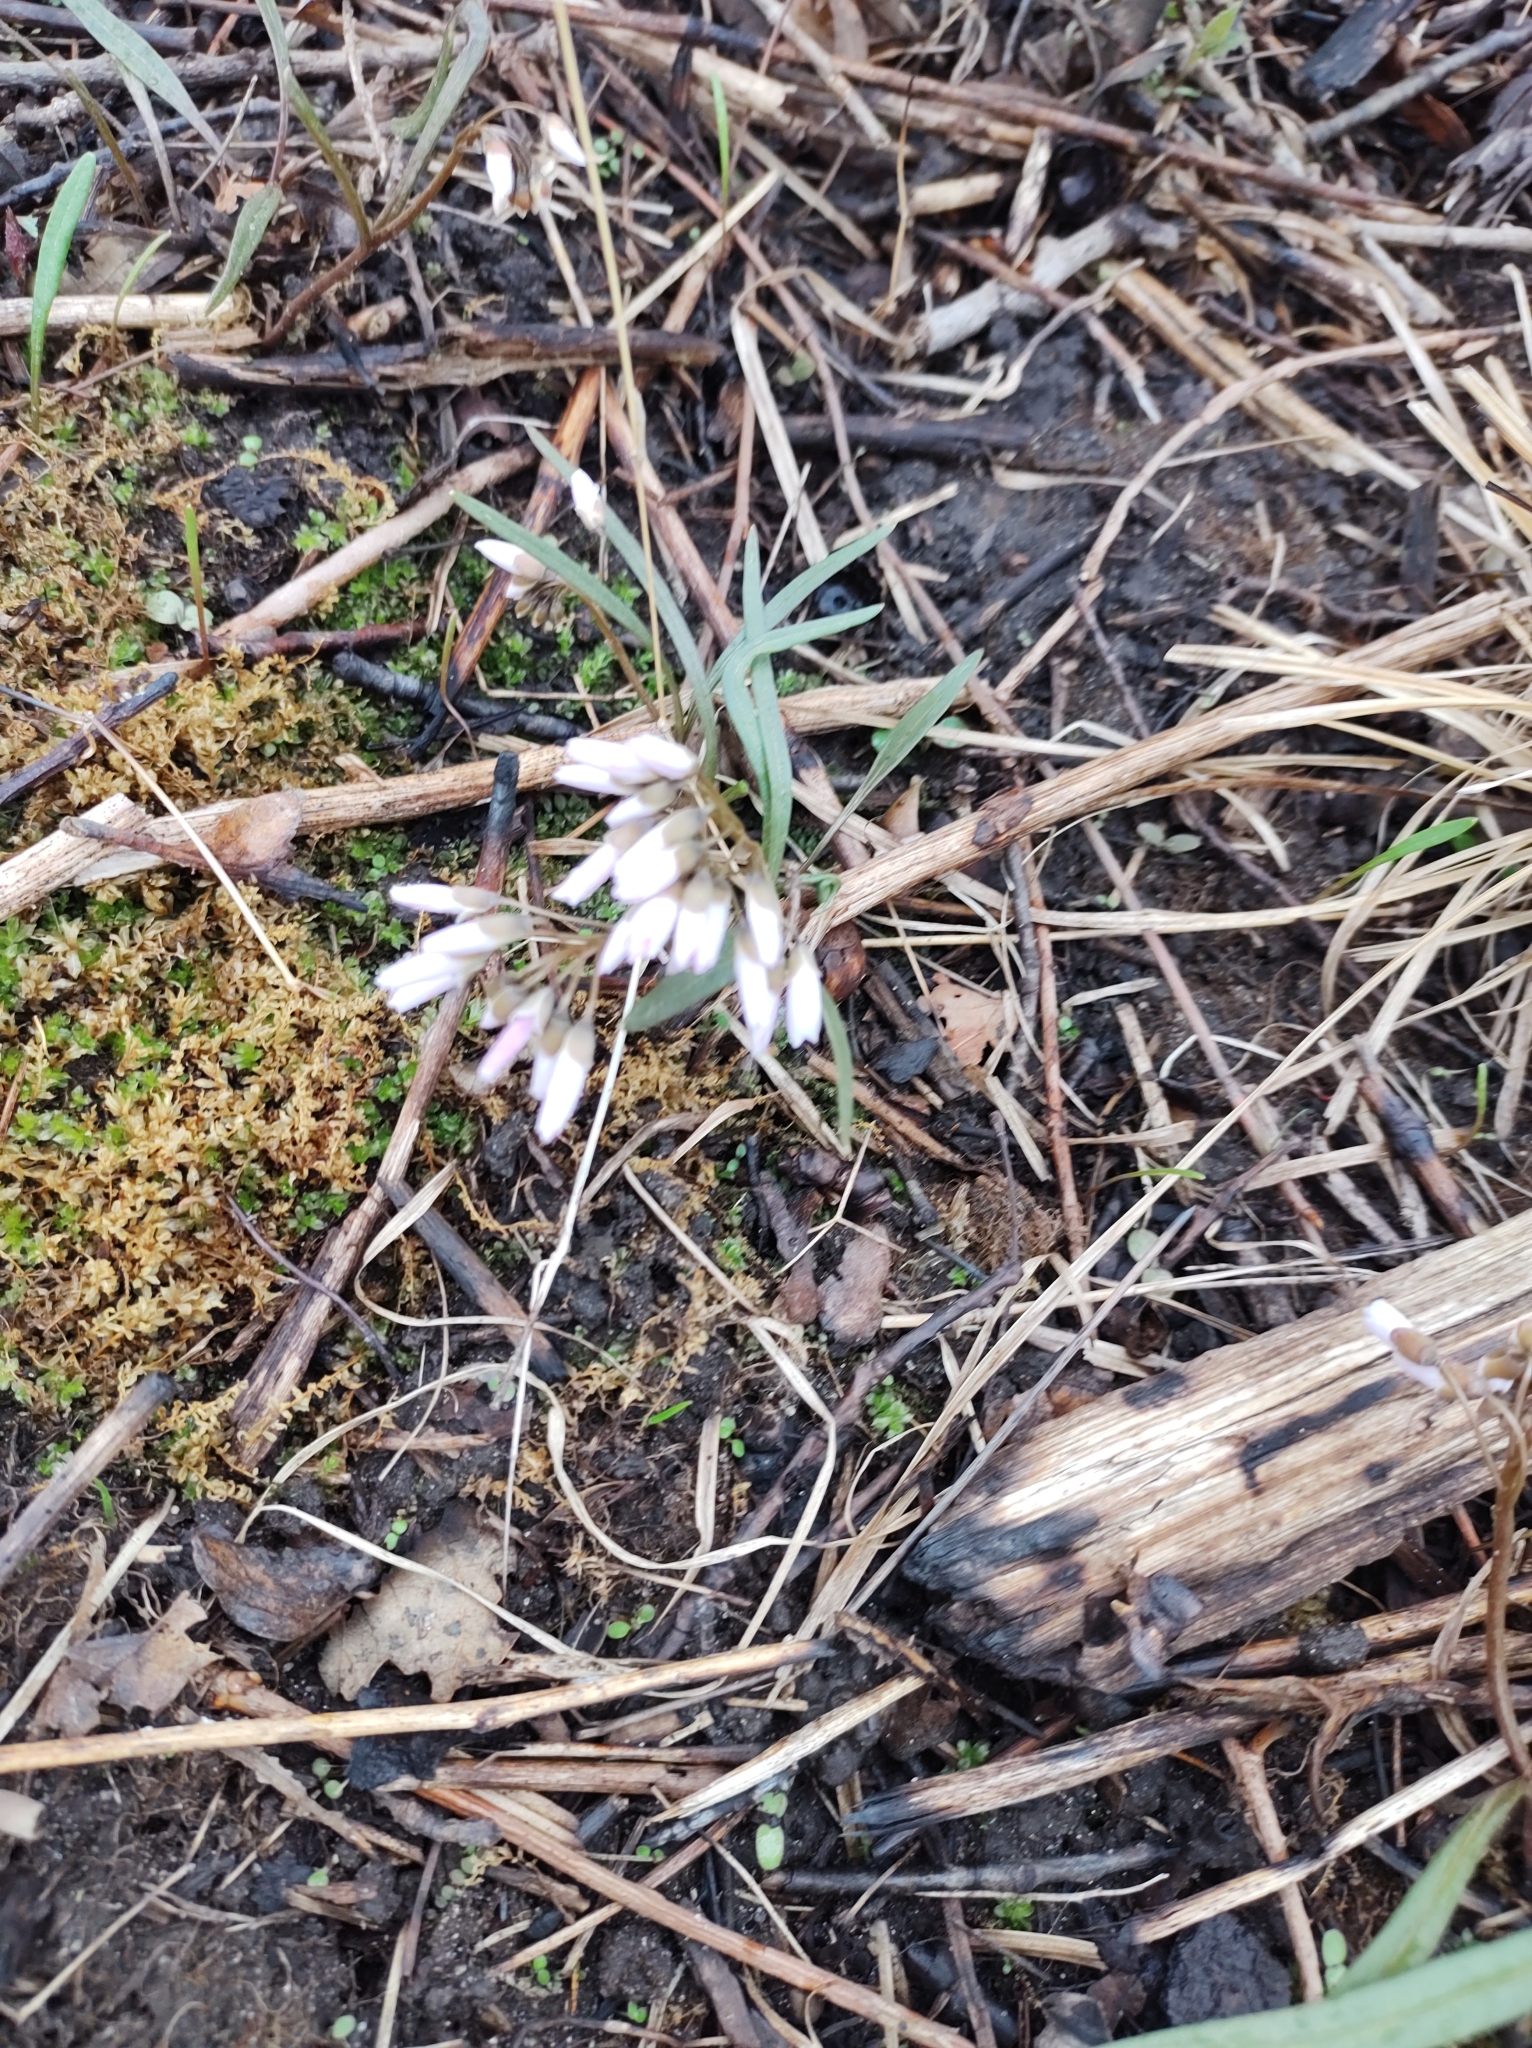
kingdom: Plantae
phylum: Tracheophyta
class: Magnoliopsida
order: Caryophyllales
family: Montiaceae
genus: Claytonia
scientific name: Claytonia virginica
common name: Virginia springbeauty
